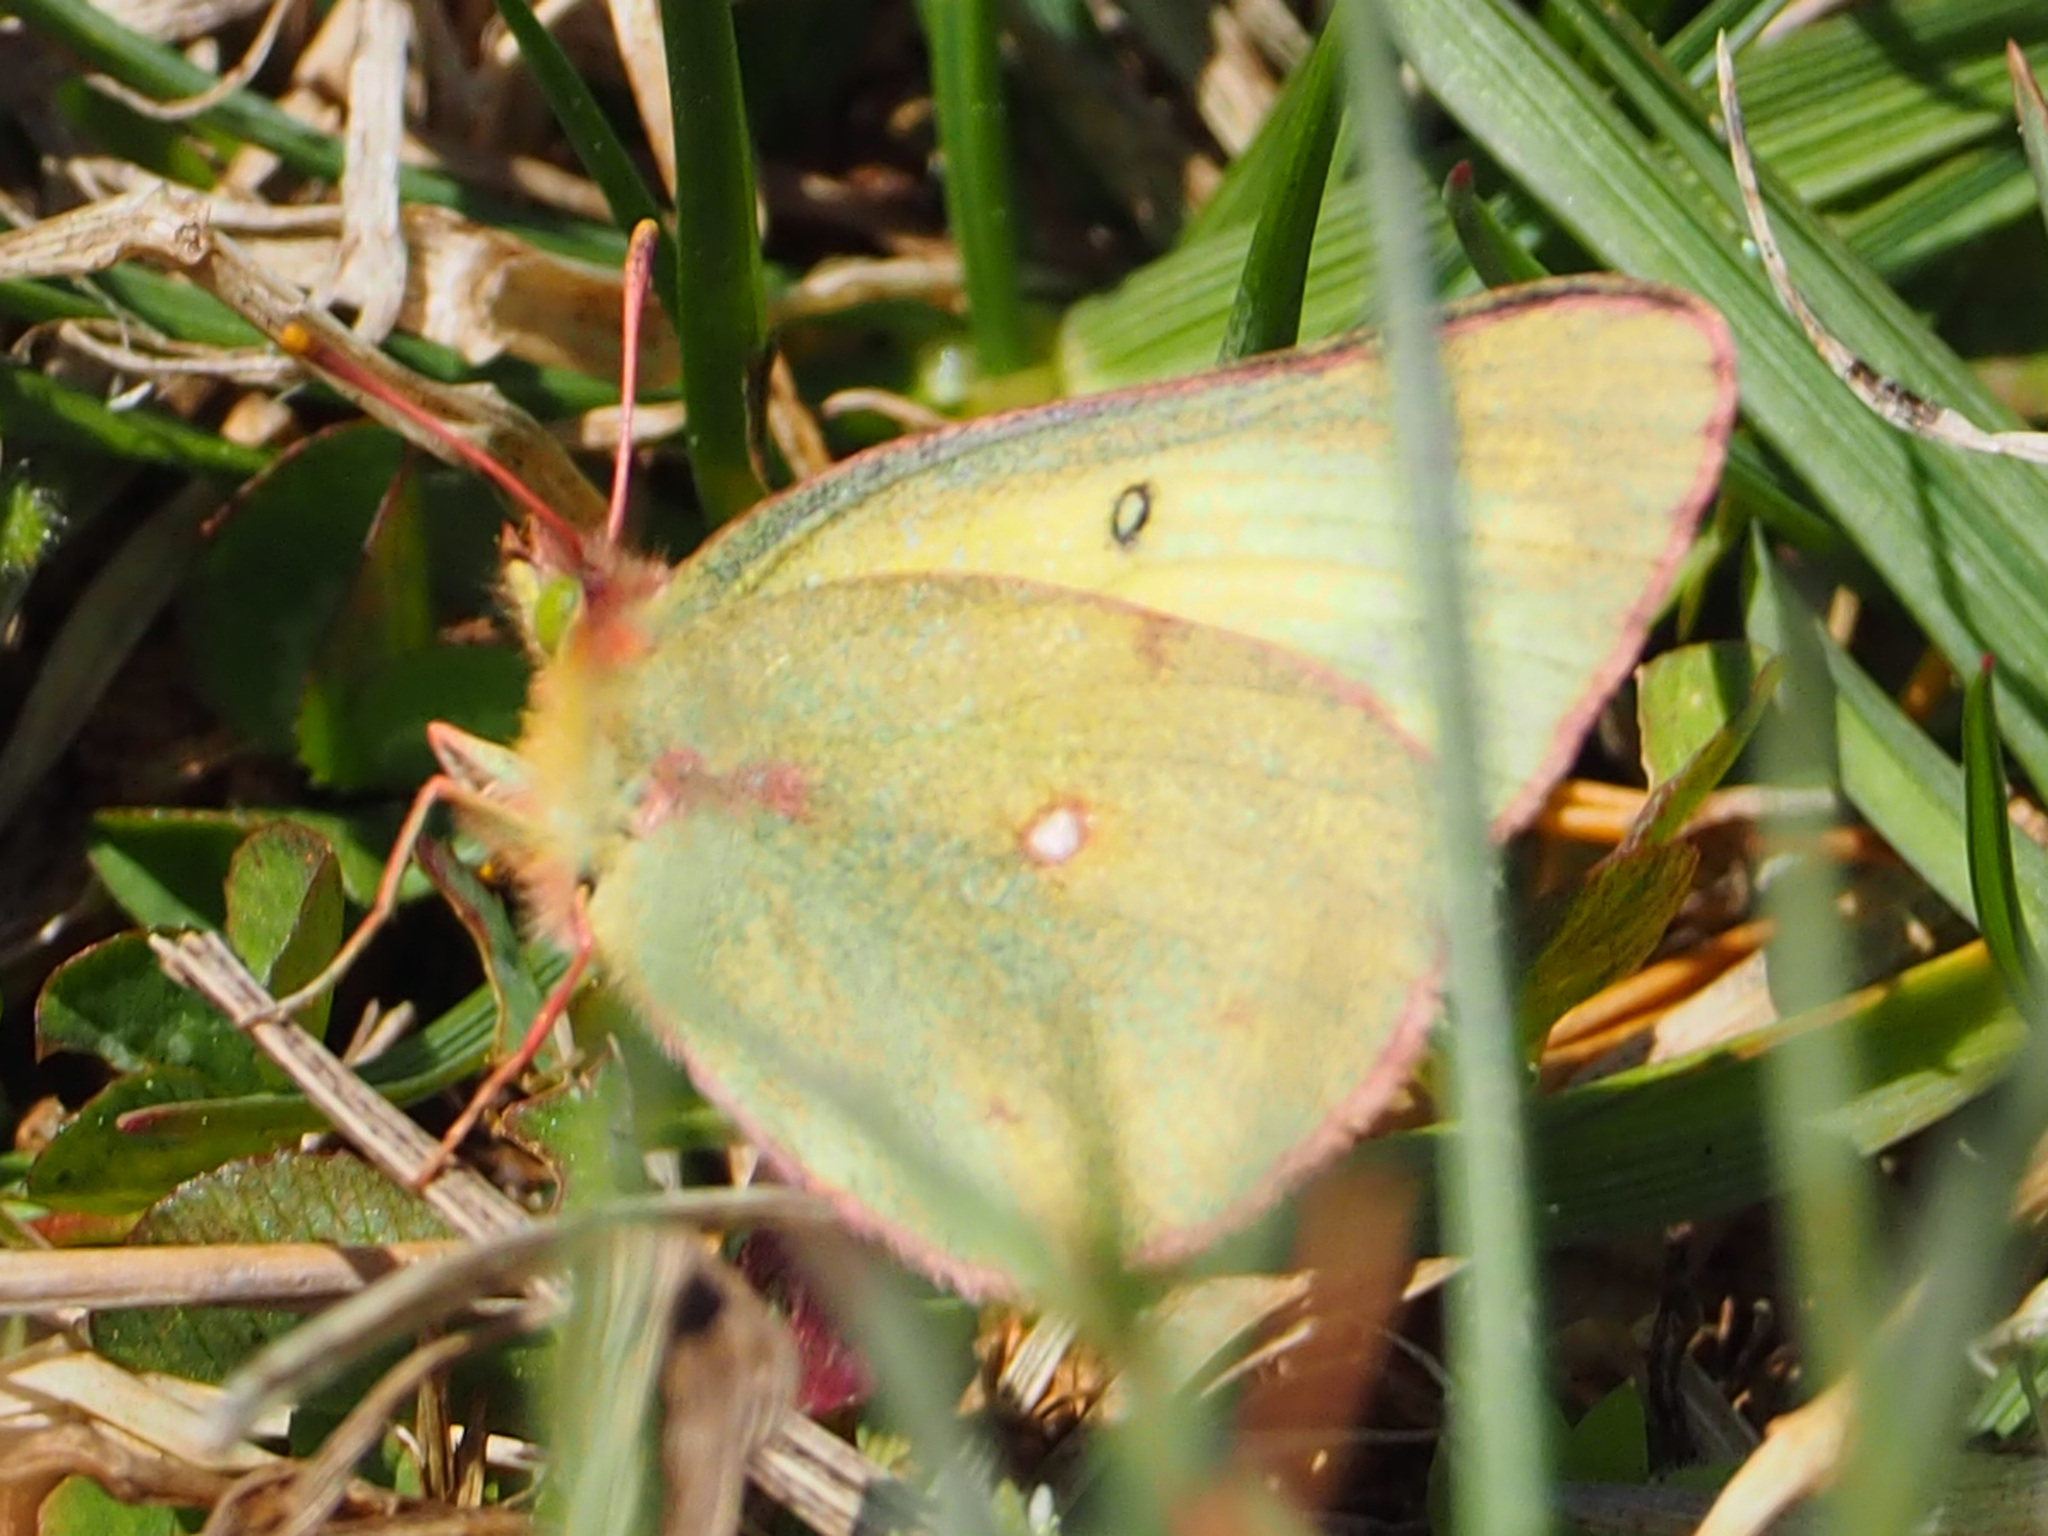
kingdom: Animalia
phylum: Arthropoda
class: Insecta
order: Lepidoptera
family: Pieridae
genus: Colias
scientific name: Colias eurytheme
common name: Alfalfa butterfly
